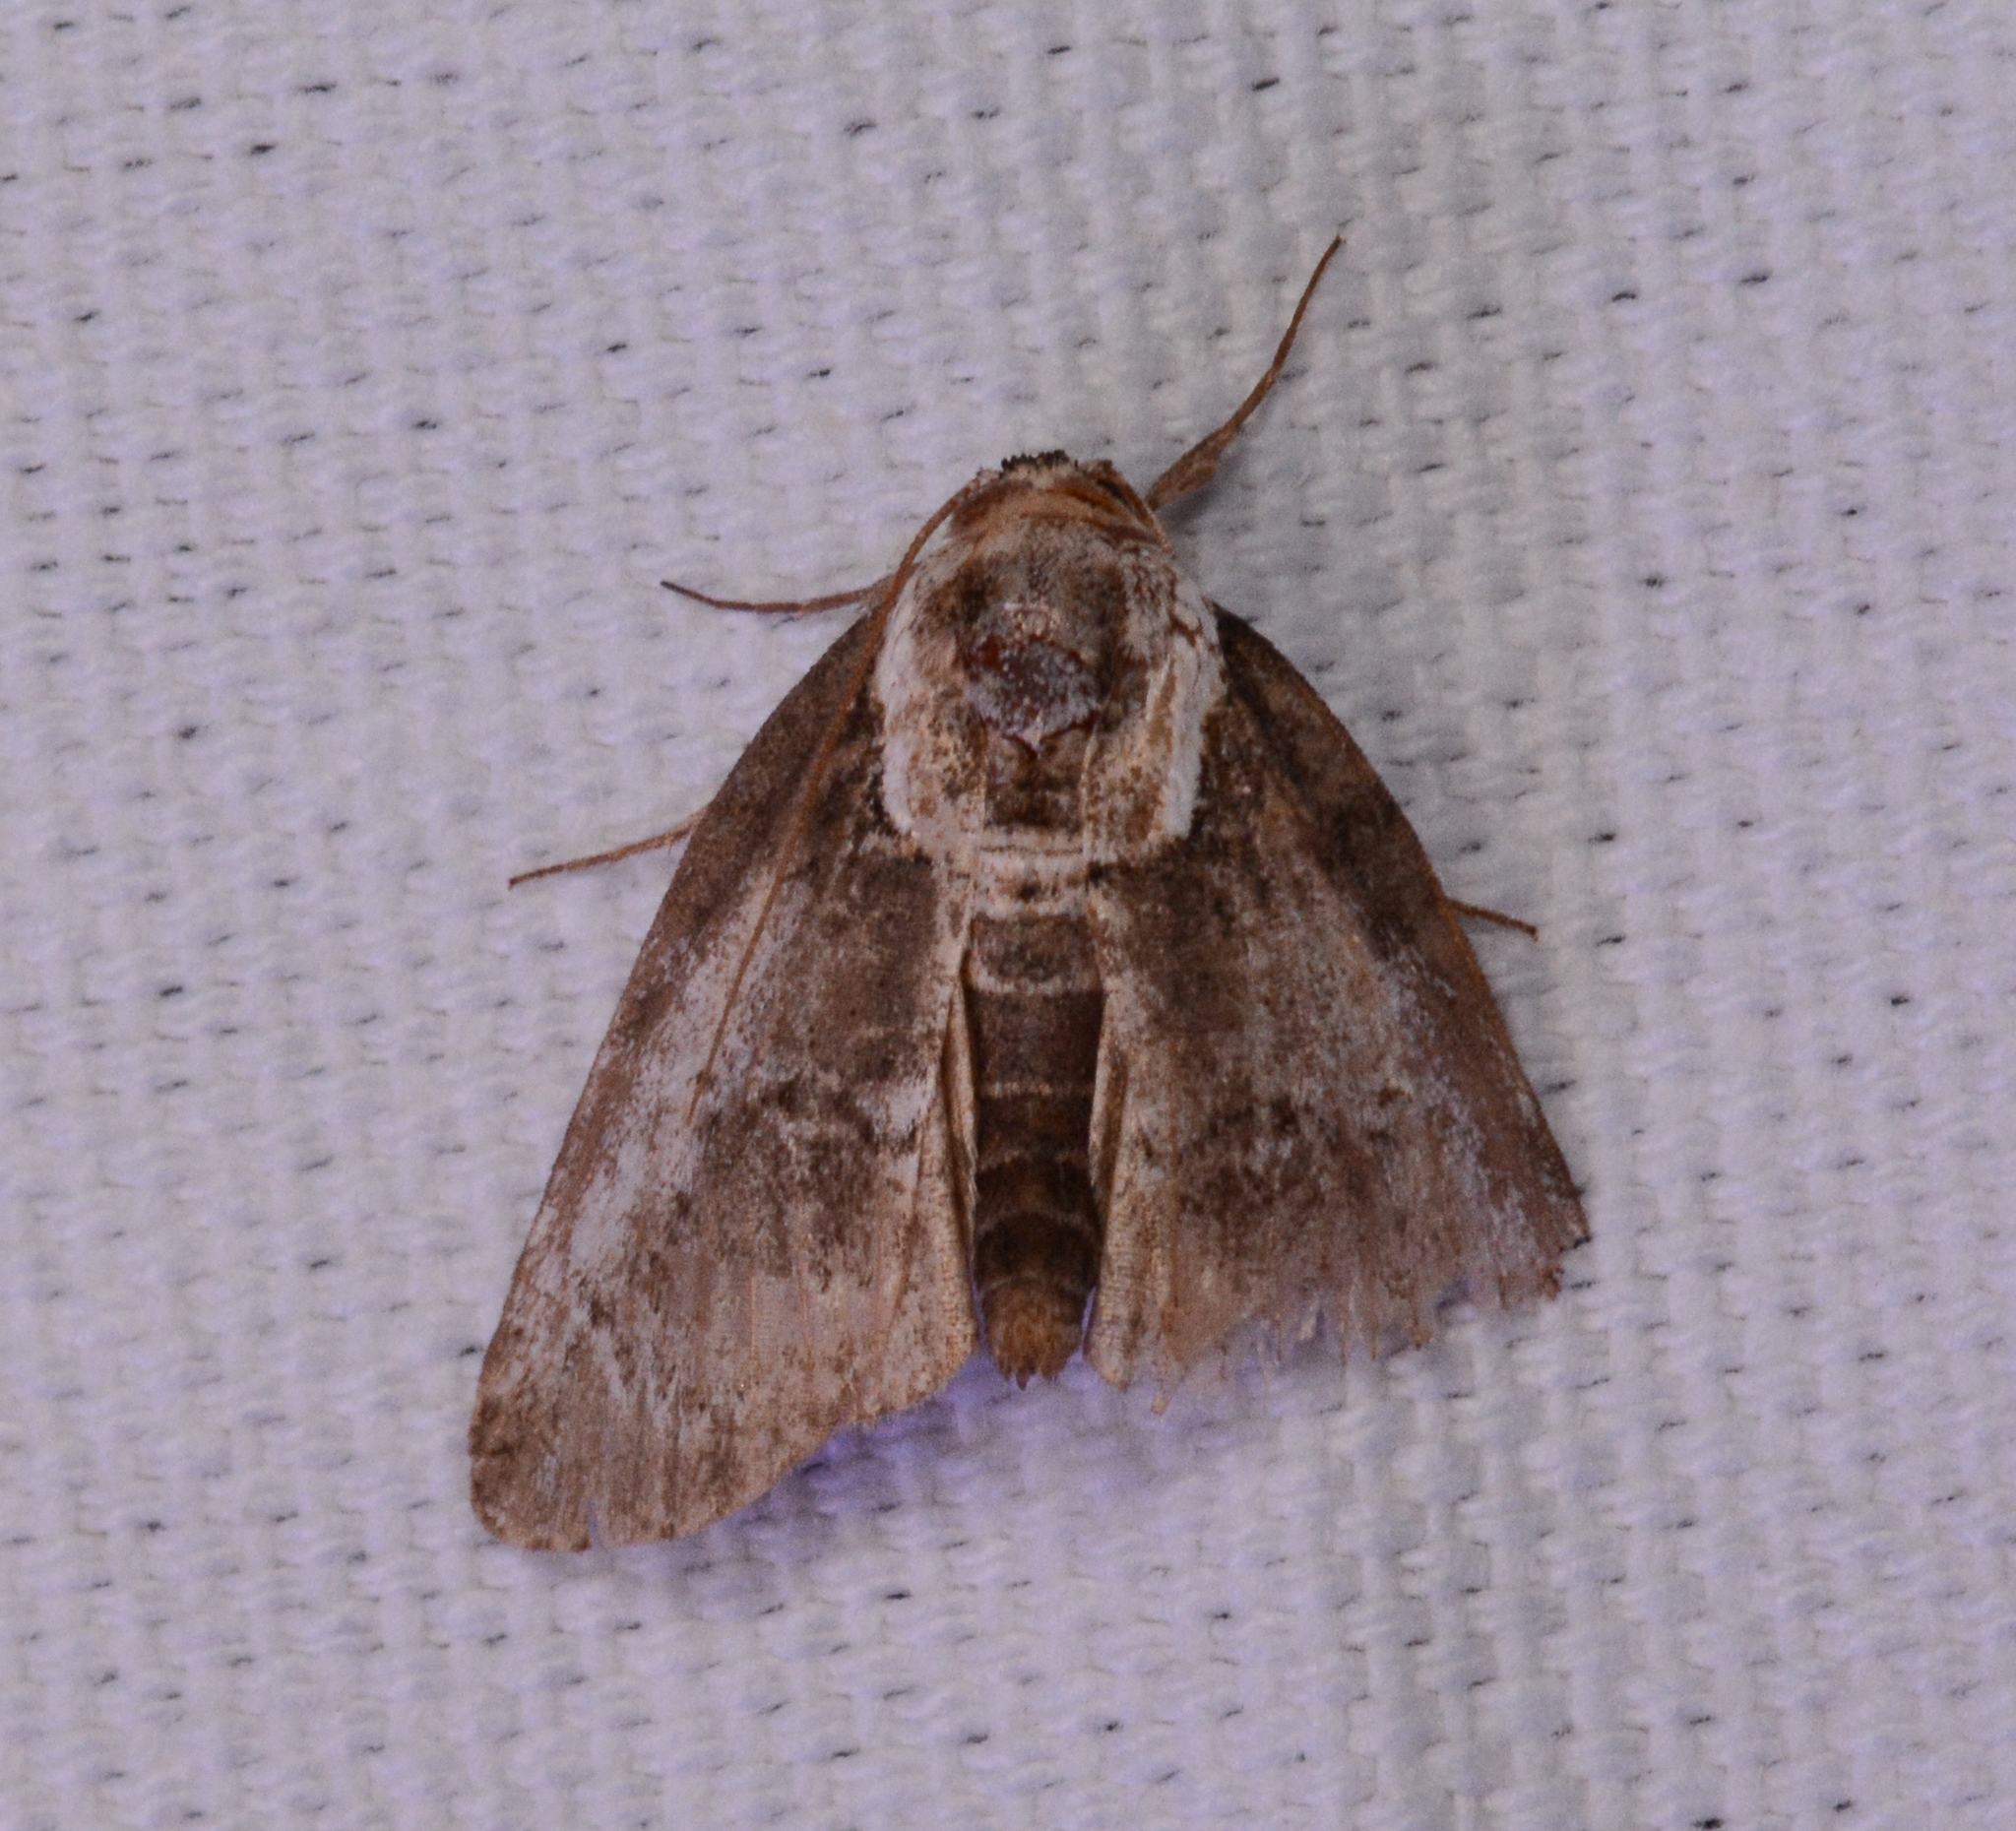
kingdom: Animalia
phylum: Arthropoda
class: Insecta
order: Lepidoptera
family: Nolidae
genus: Baileya
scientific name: Baileya ophthalmica
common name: Eyed baileya moth
